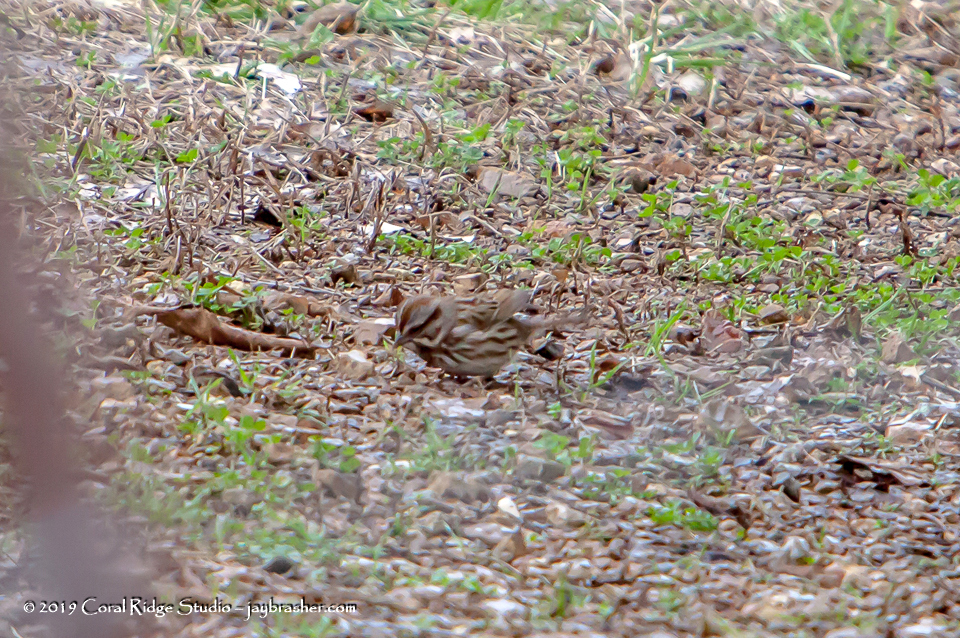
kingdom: Animalia
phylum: Chordata
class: Aves
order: Passeriformes
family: Passerellidae
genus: Melospiza
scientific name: Melospiza melodia
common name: Song sparrow
